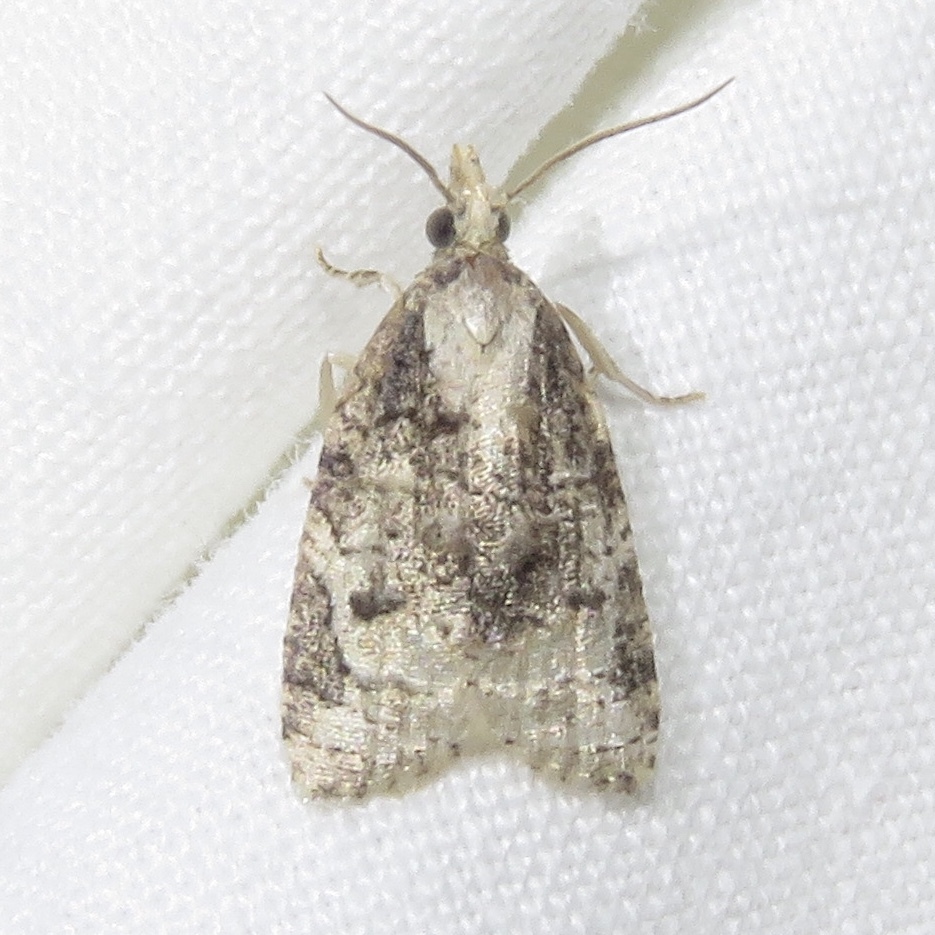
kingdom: Animalia
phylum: Arthropoda
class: Insecta
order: Lepidoptera
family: Tortricidae
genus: Platynota
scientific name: Platynota exasperatana
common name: Exasperating platynota moth
